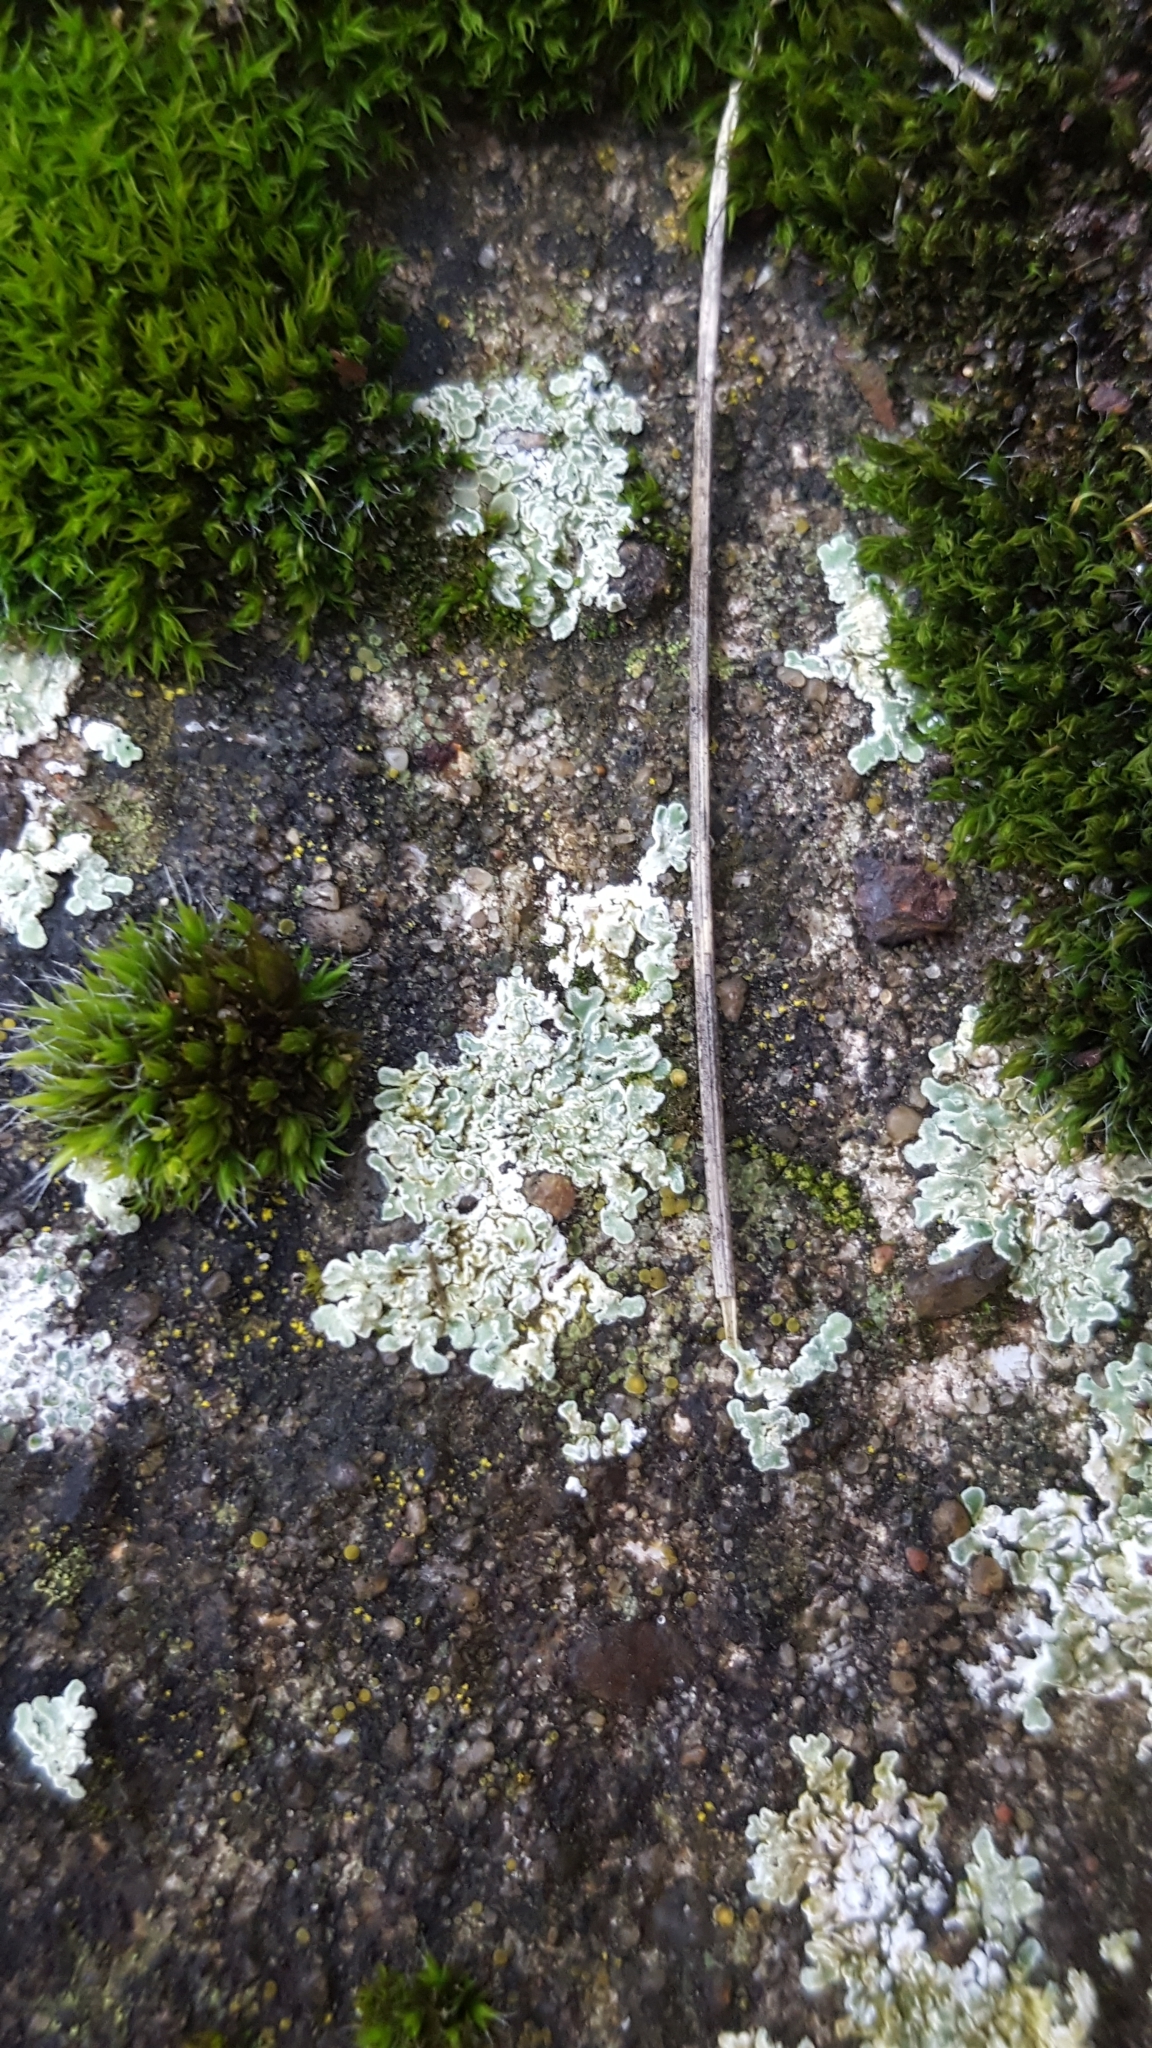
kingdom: Fungi
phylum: Ascomycota
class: Lecanoromycetes
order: Lecanorales
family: Lecanoraceae
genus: Protoparmeliopsis
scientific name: Protoparmeliopsis muralis
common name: Stonewall rim lichen
